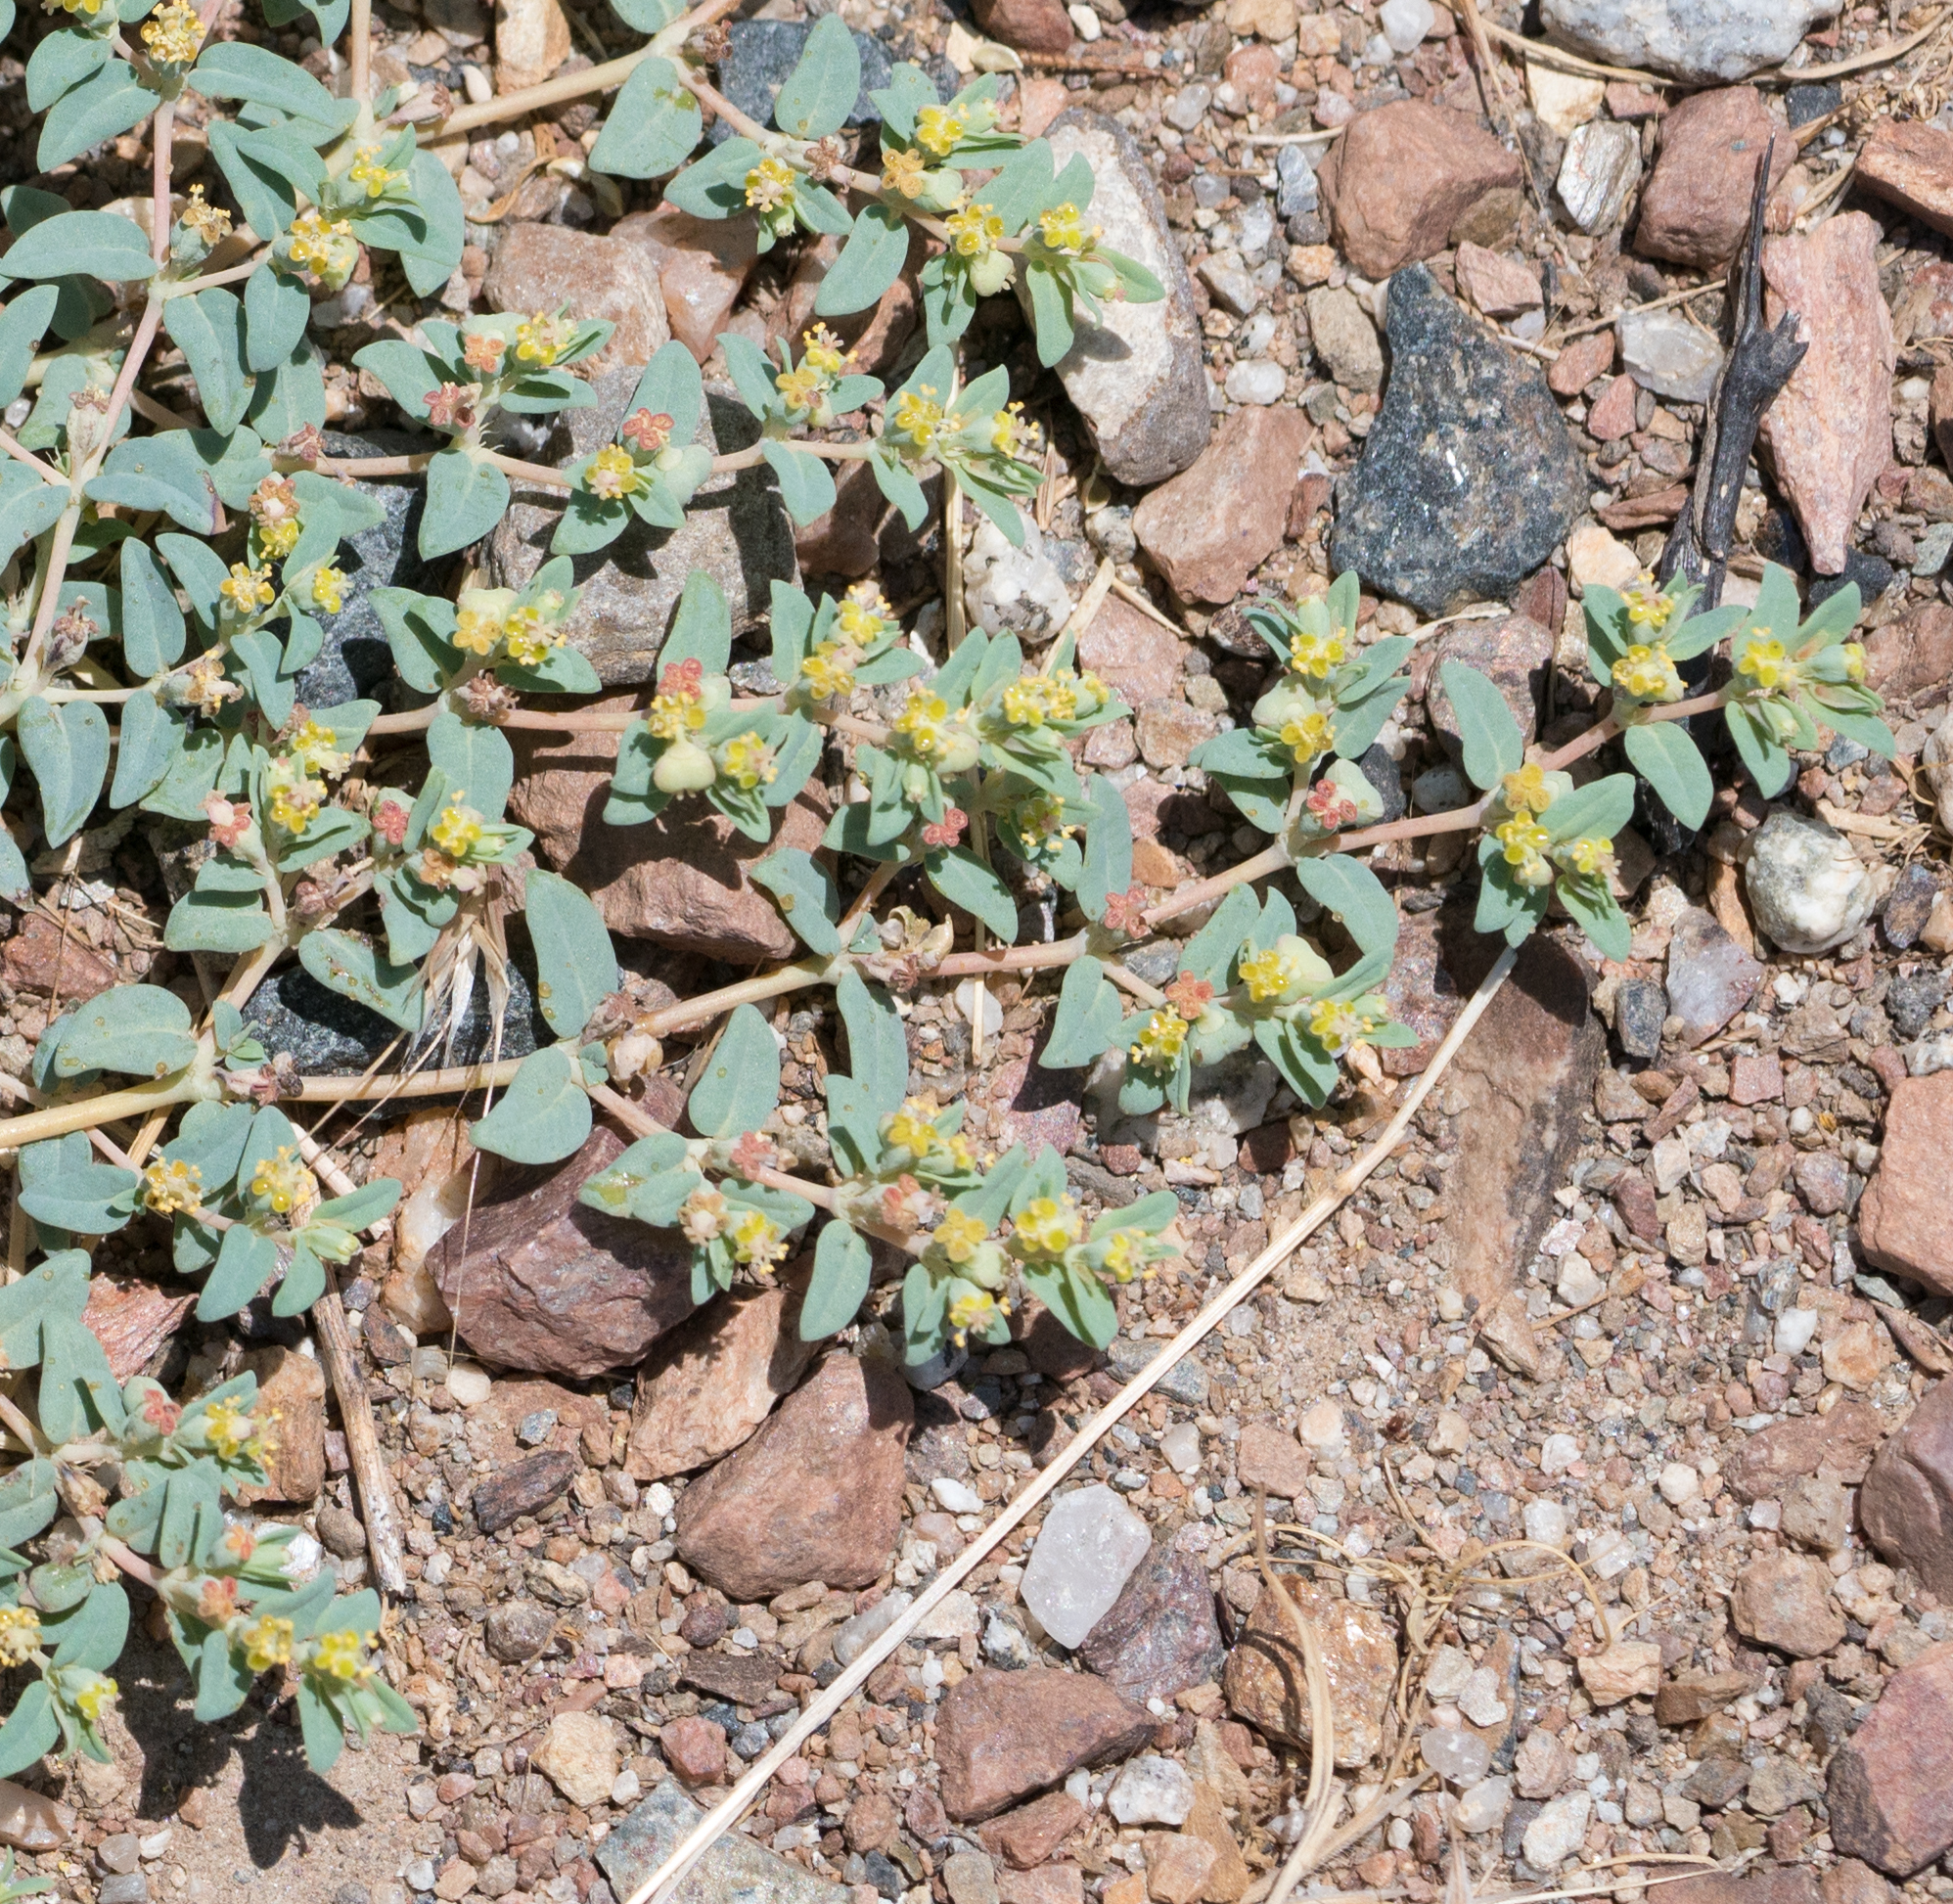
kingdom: Plantae
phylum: Tracheophyta
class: Magnoliopsida
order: Malpighiales
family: Euphorbiaceae
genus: Euphorbia
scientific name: Euphorbia ocellata
